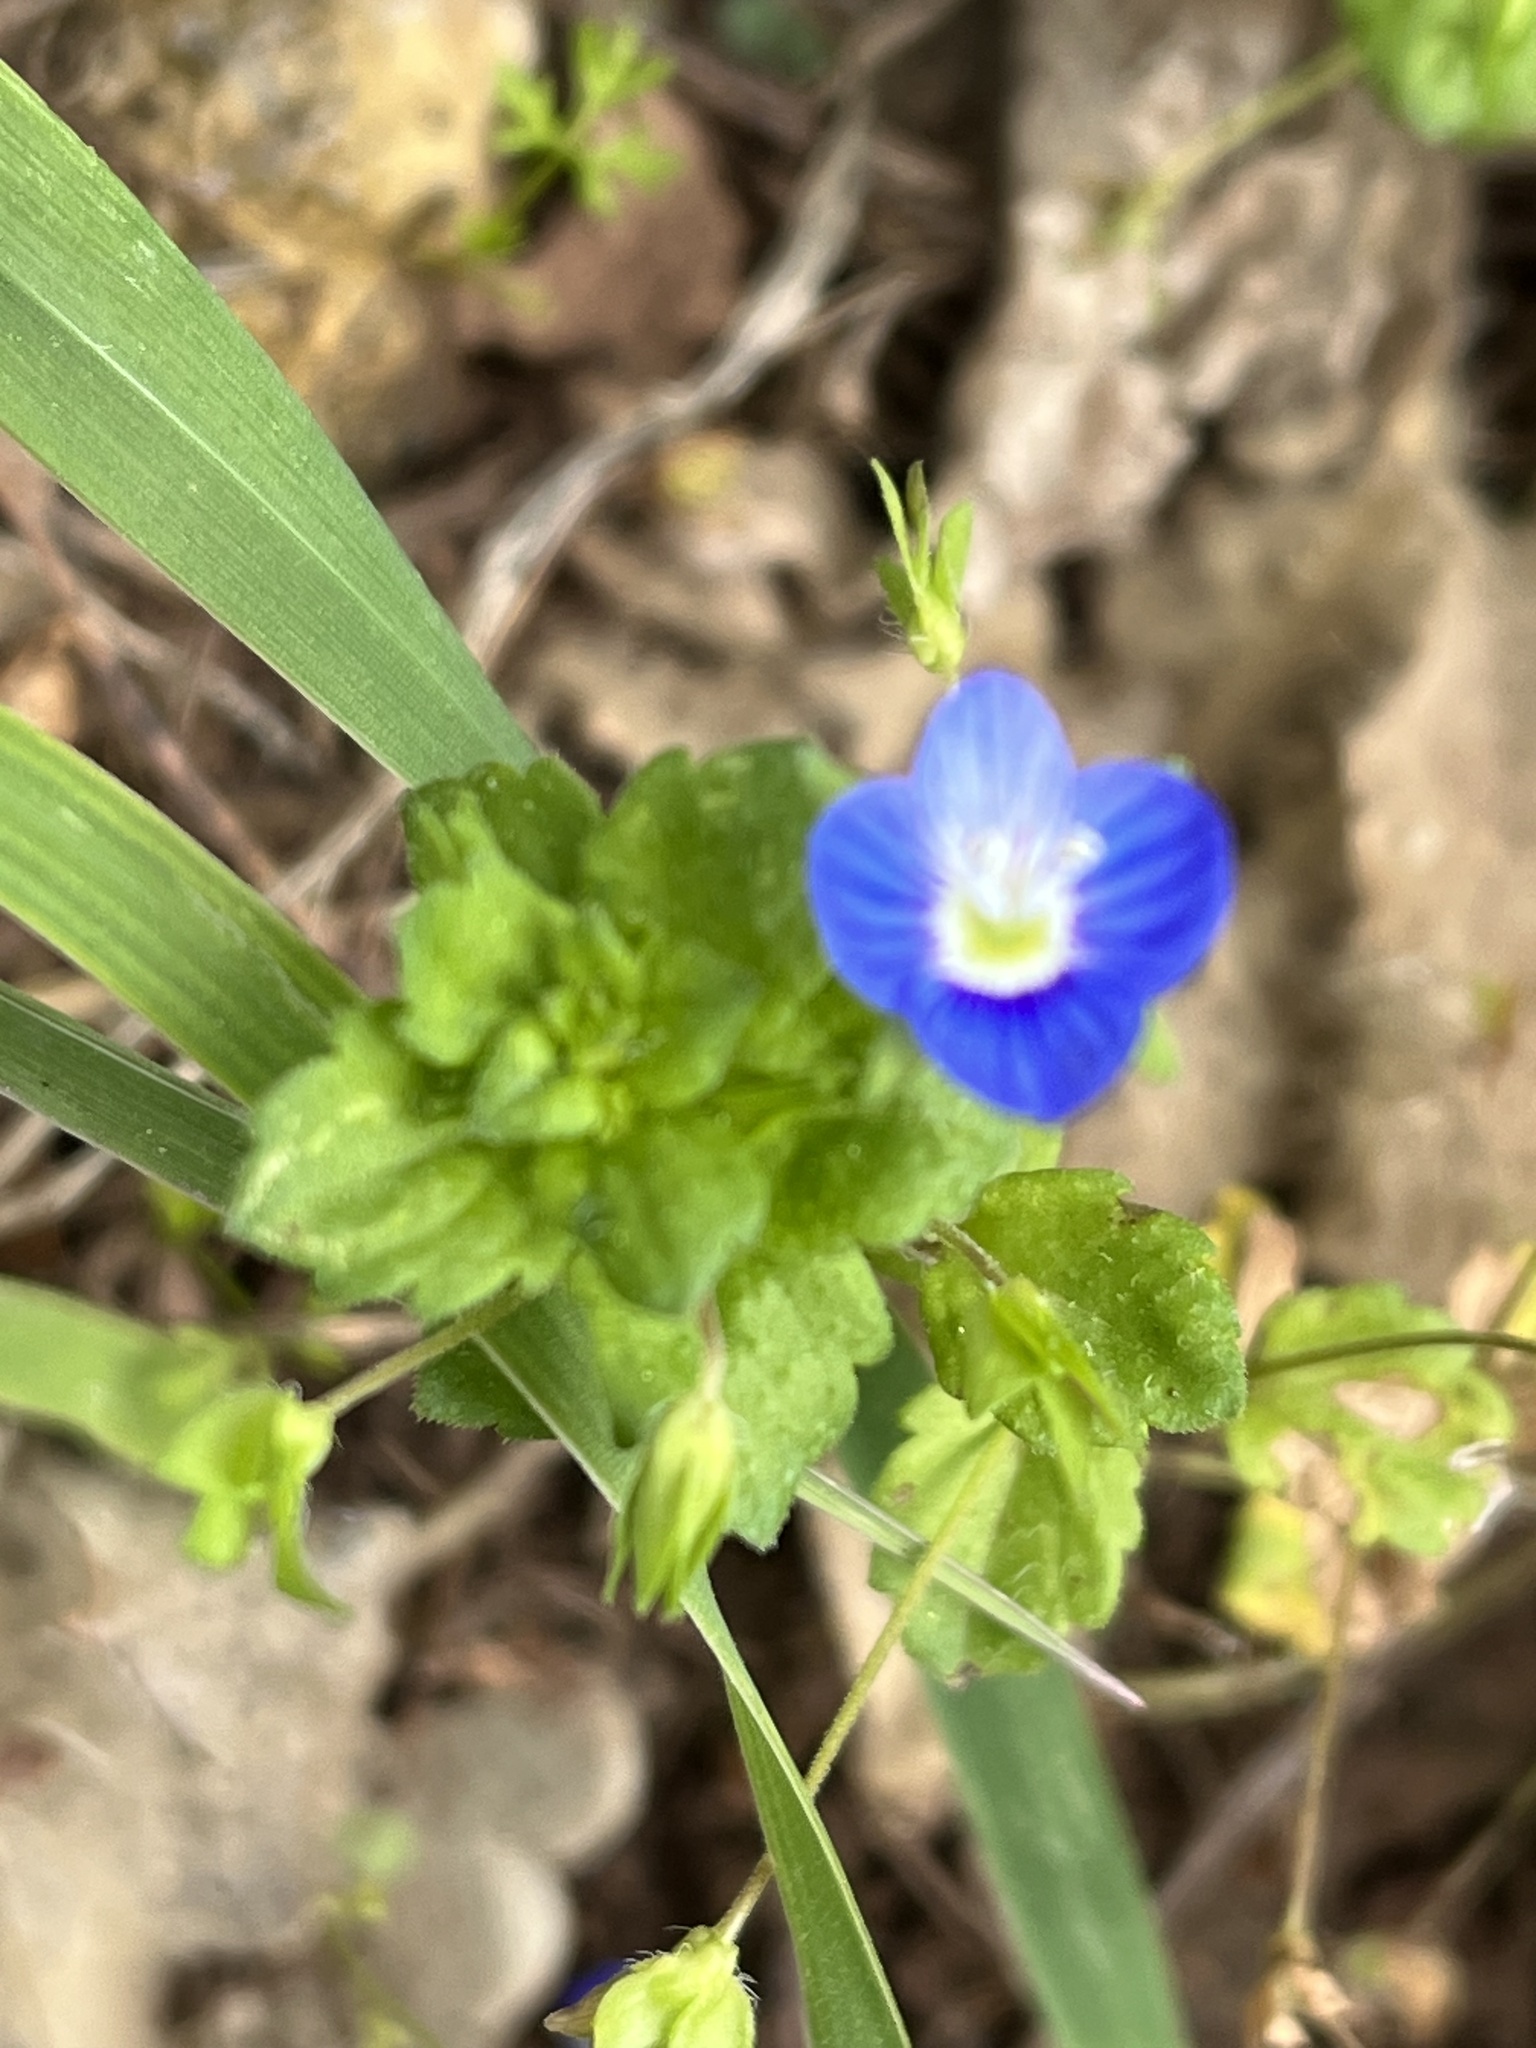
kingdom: Plantae
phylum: Tracheophyta
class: Magnoliopsida
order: Lamiales
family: Plantaginaceae
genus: Veronica
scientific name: Veronica persica
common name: Common field-speedwell
